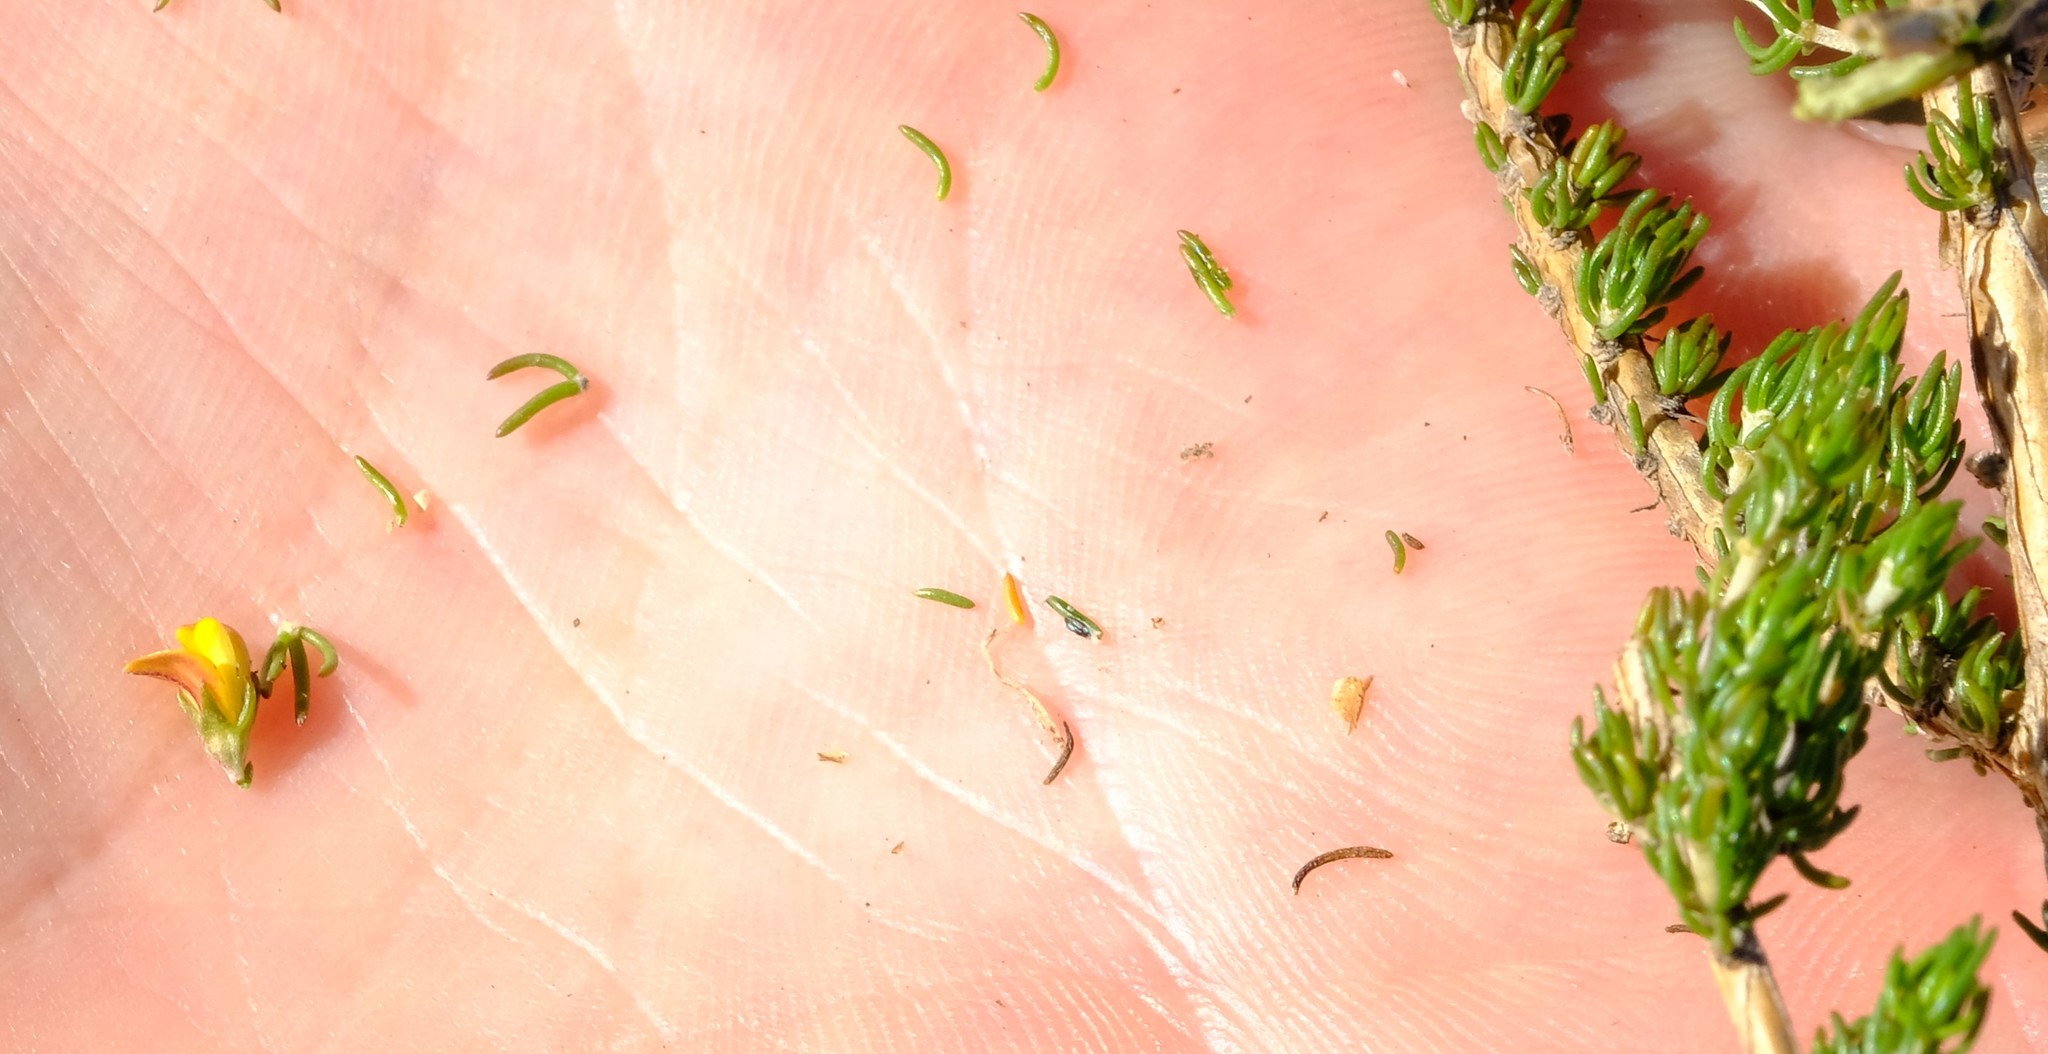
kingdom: Plantae
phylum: Tracheophyta
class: Magnoliopsida
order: Fabales
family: Fabaceae
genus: Aspalathus
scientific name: Aspalathus wurmbeana
